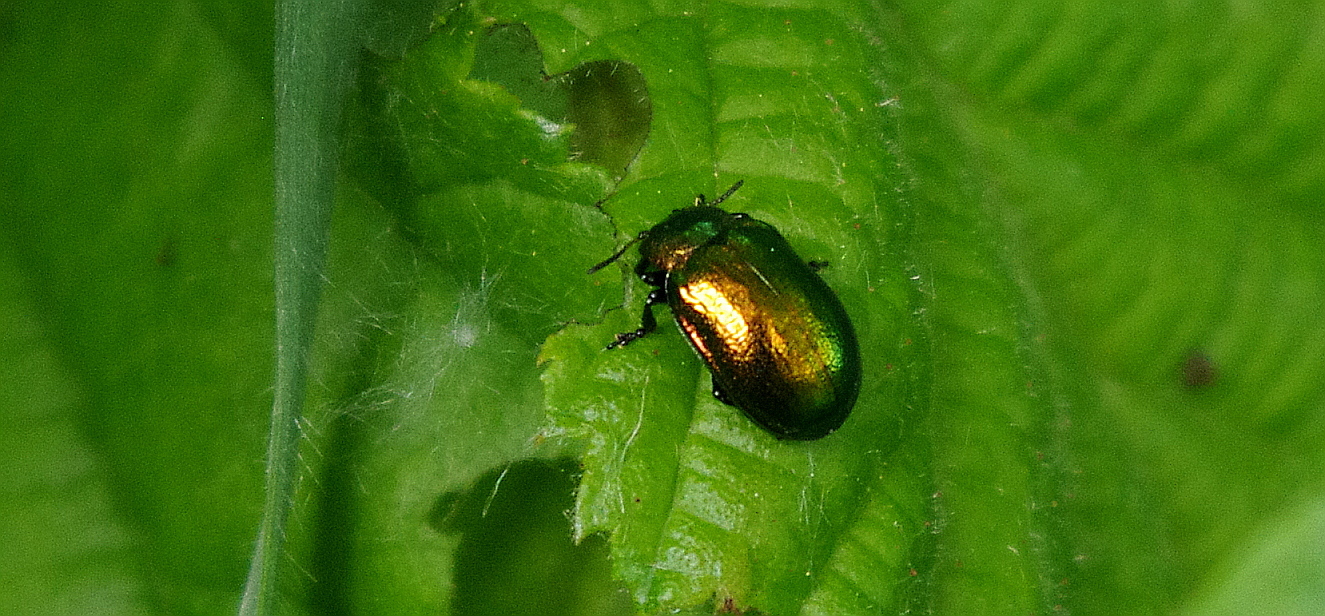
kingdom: Animalia
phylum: Arthropoda
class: Insecta
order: Coleoptera
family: Chrysomelidae
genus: Plagiosterna
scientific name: Plagiosterna aenea
